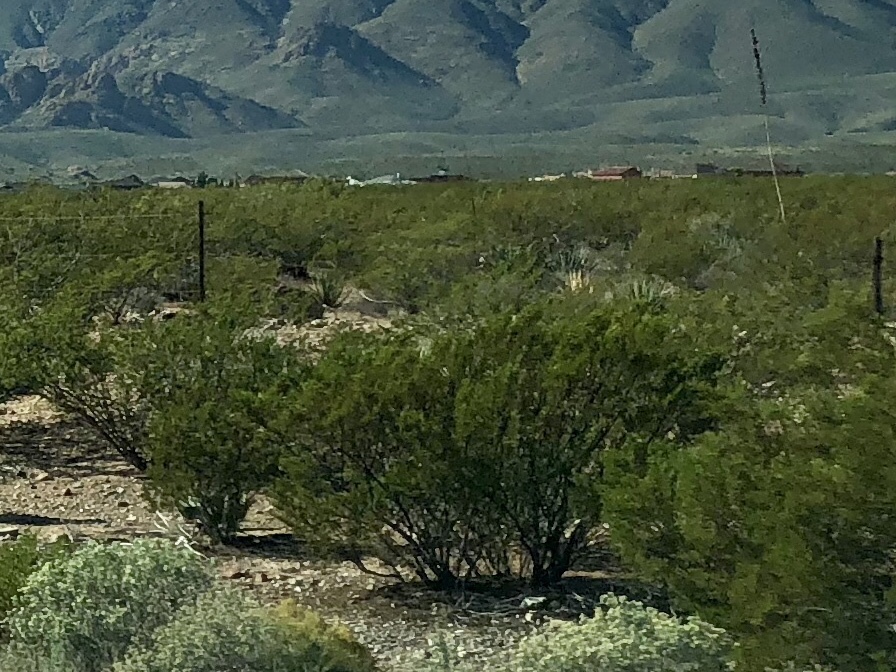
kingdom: Plantae
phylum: Tracheophyta
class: Magnoliopsida
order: Zygophyllales
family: Zygophyllaceae
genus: Larrea
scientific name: Larrea tridentata
